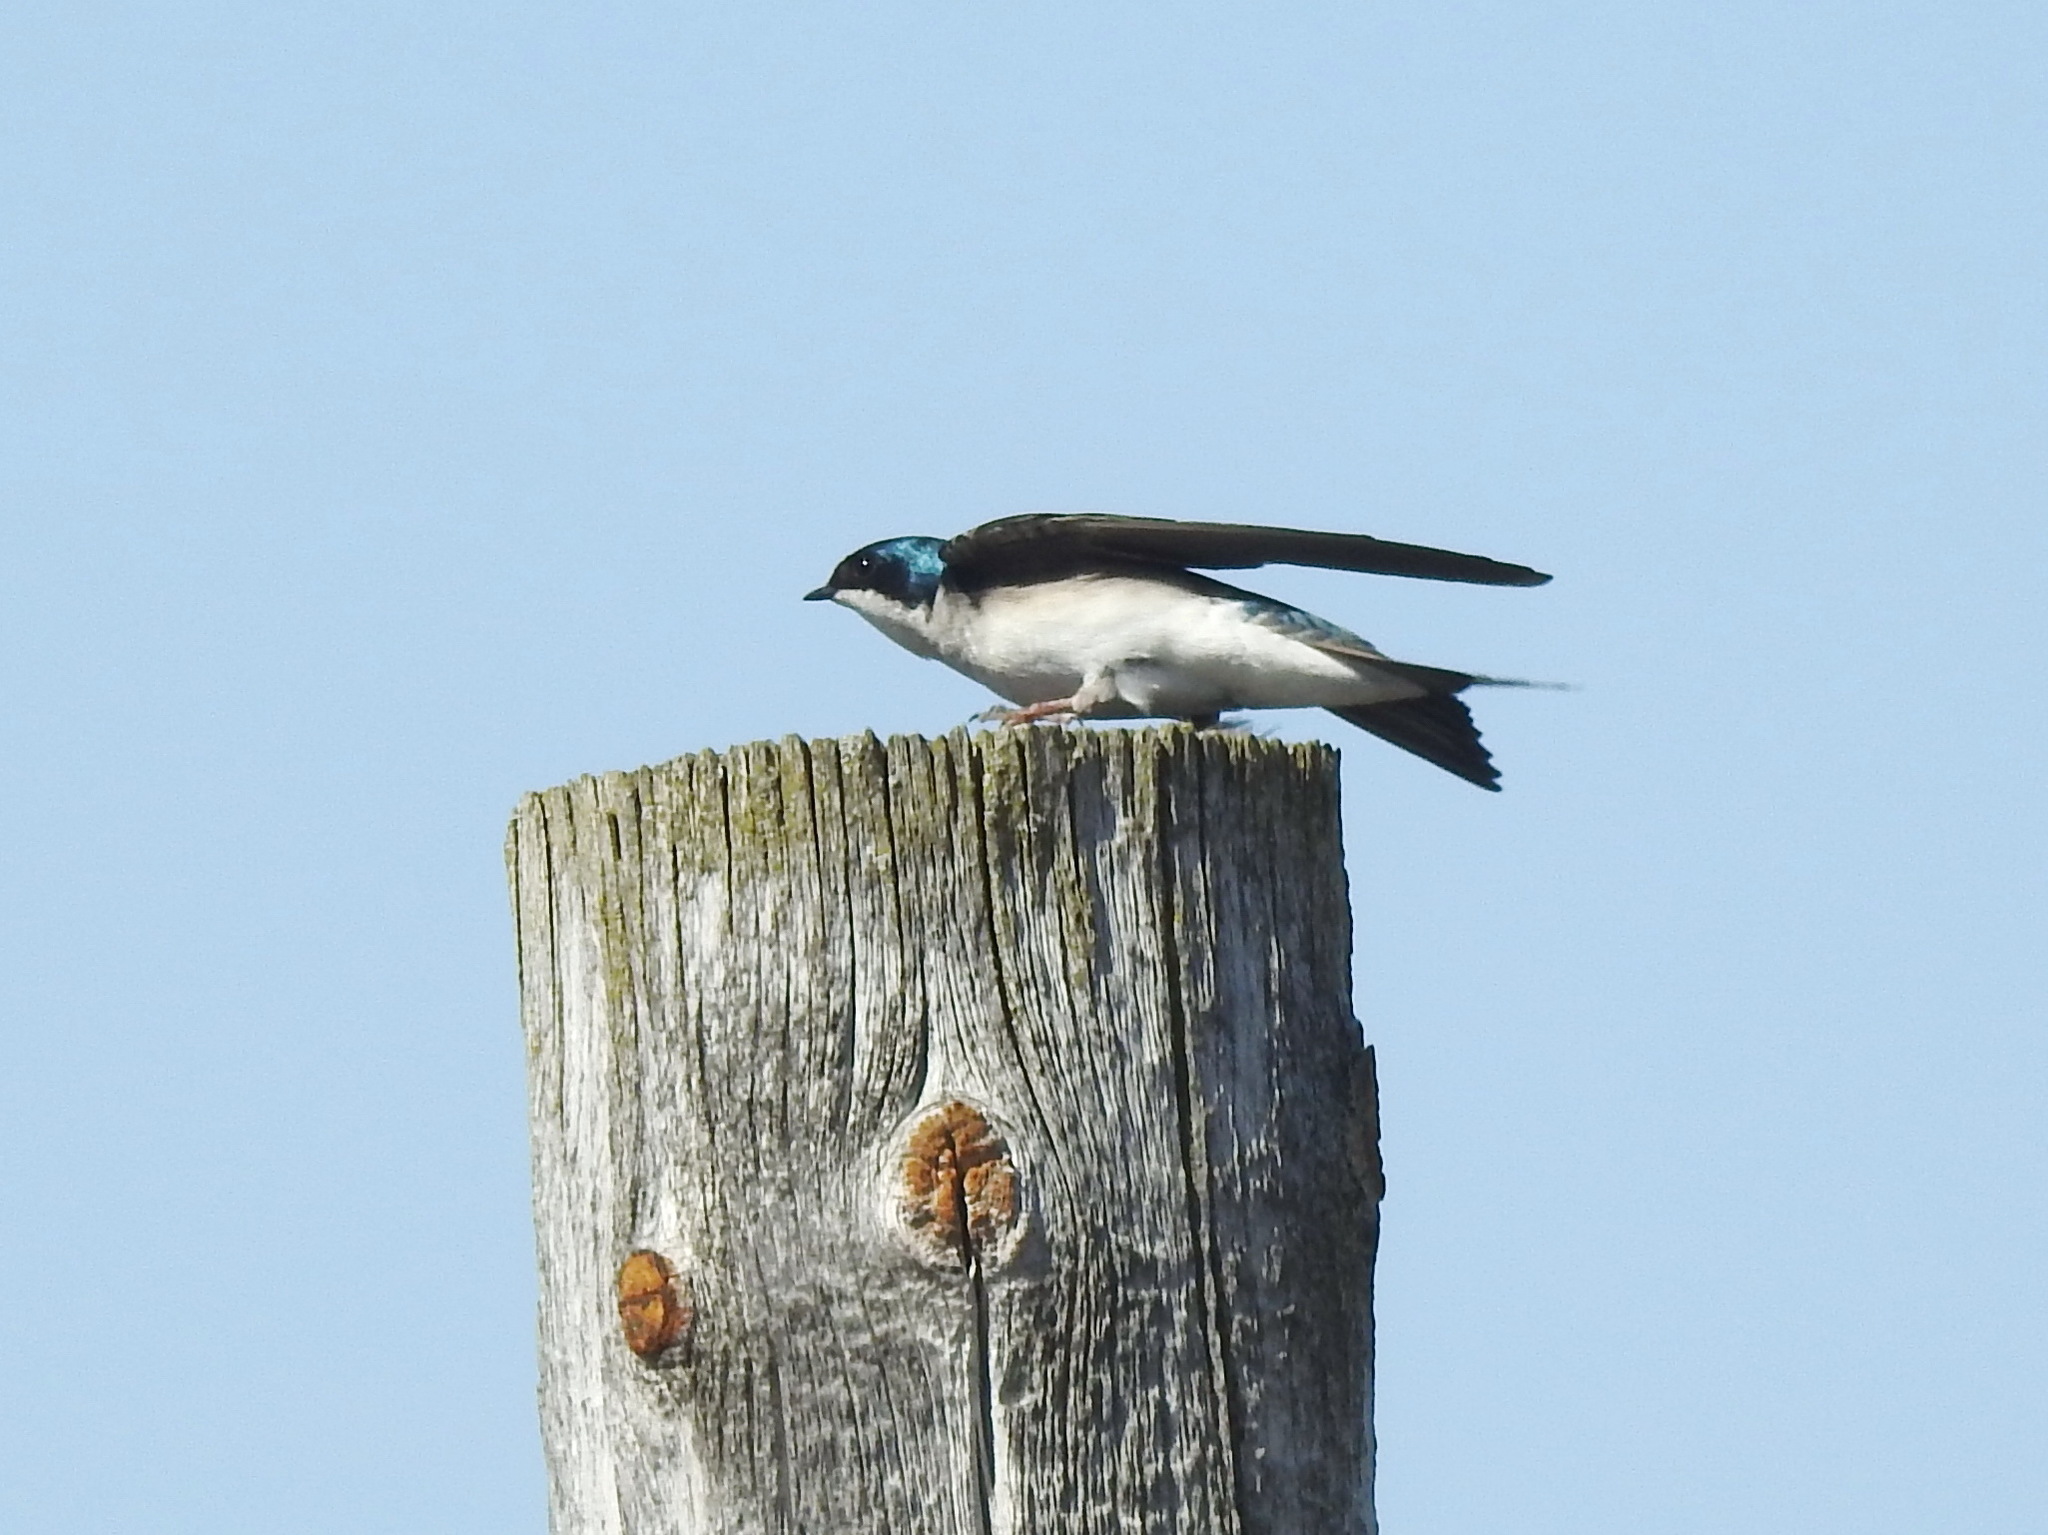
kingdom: Animalia
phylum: Chordata
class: Aves
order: Passeriformes
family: Hirundinidae
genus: Tachycineta
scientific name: Tachycineta bicolor
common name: Tree swallow
